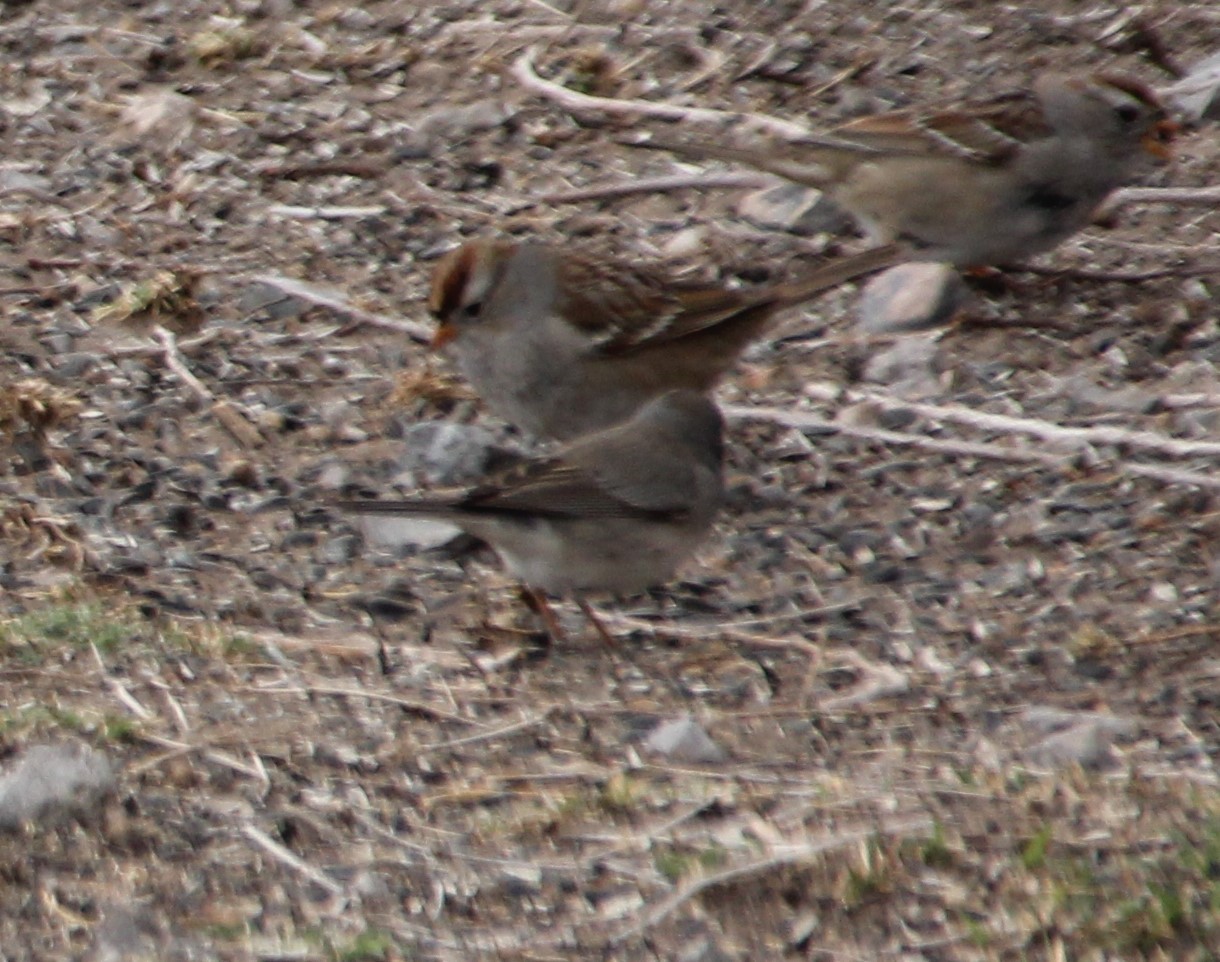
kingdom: Animalia
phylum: Chordata
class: Aves
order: Passeriformes
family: Passerellidae
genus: Junco
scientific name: Junco hyemalis
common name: Dark-eyed junco
